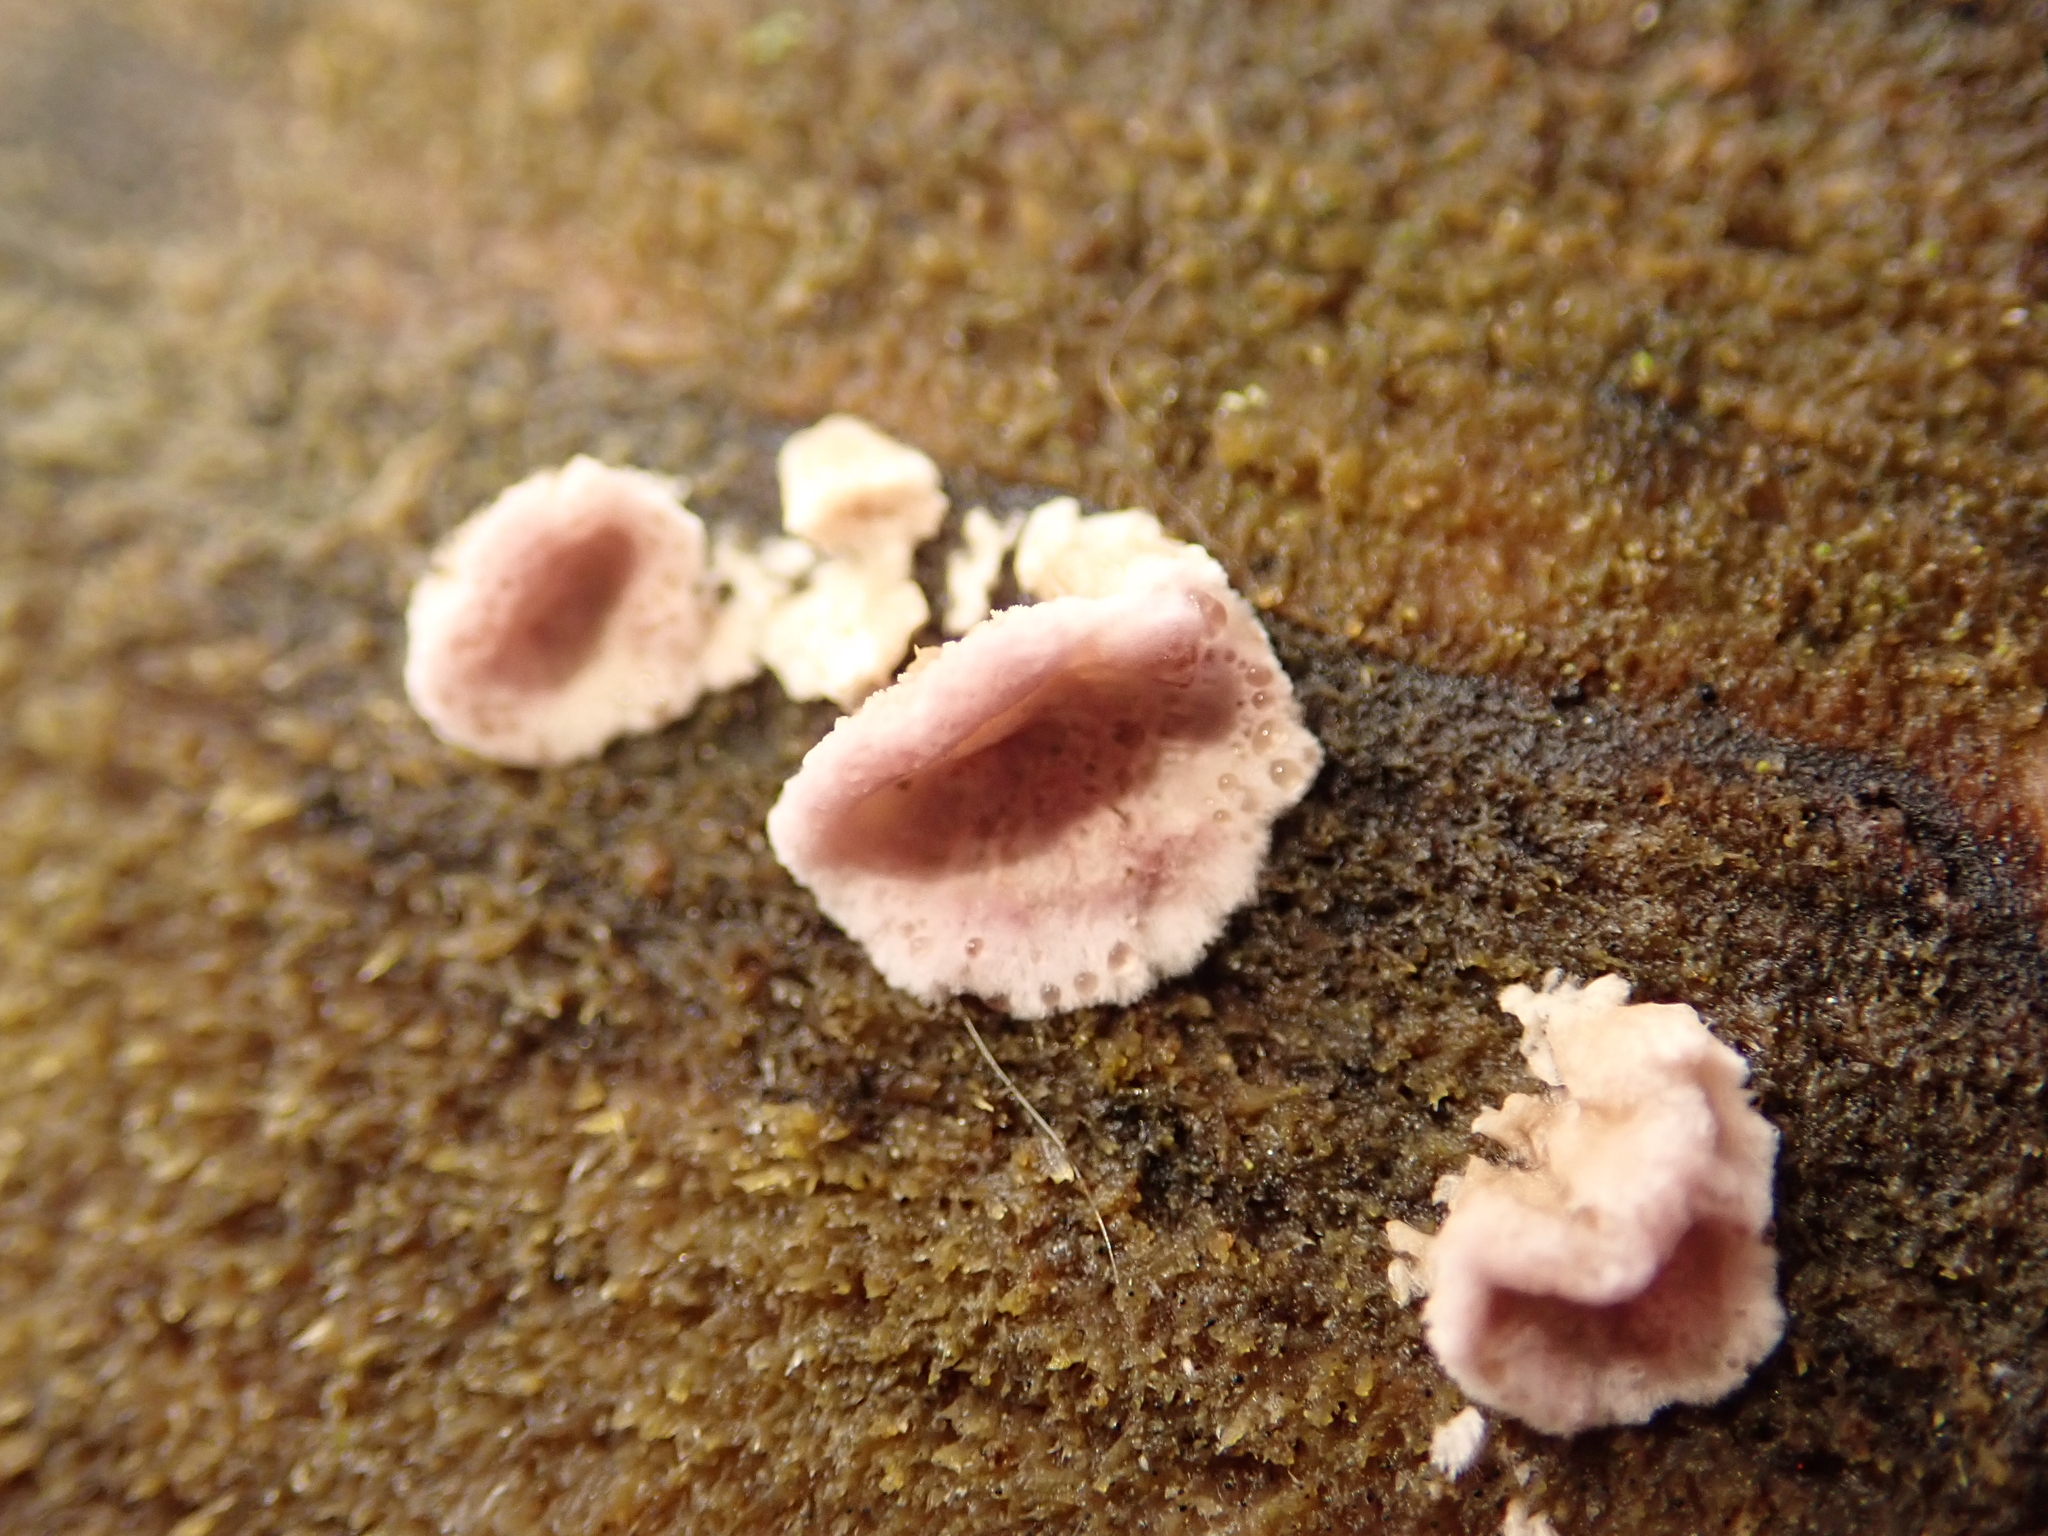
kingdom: Fungi
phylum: Basidiomycota
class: Agaricomycetes
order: Agaricales
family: Cyphellaceae
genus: Chondrostereum
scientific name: Chondrostereum purpureum
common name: Silver leaf disease
